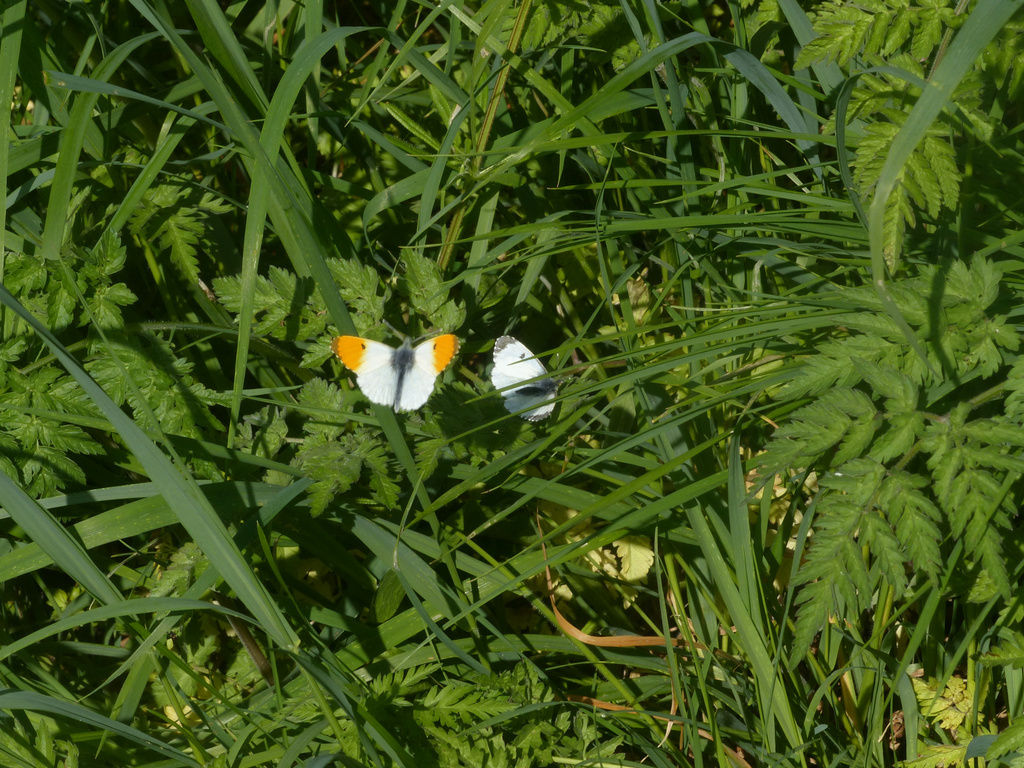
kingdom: Animalia
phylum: Arthropoda
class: Insecta
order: Lepidoptera
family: Pieridae
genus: Anthocharis
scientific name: Anthocharis cardamines
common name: Orange-tip
